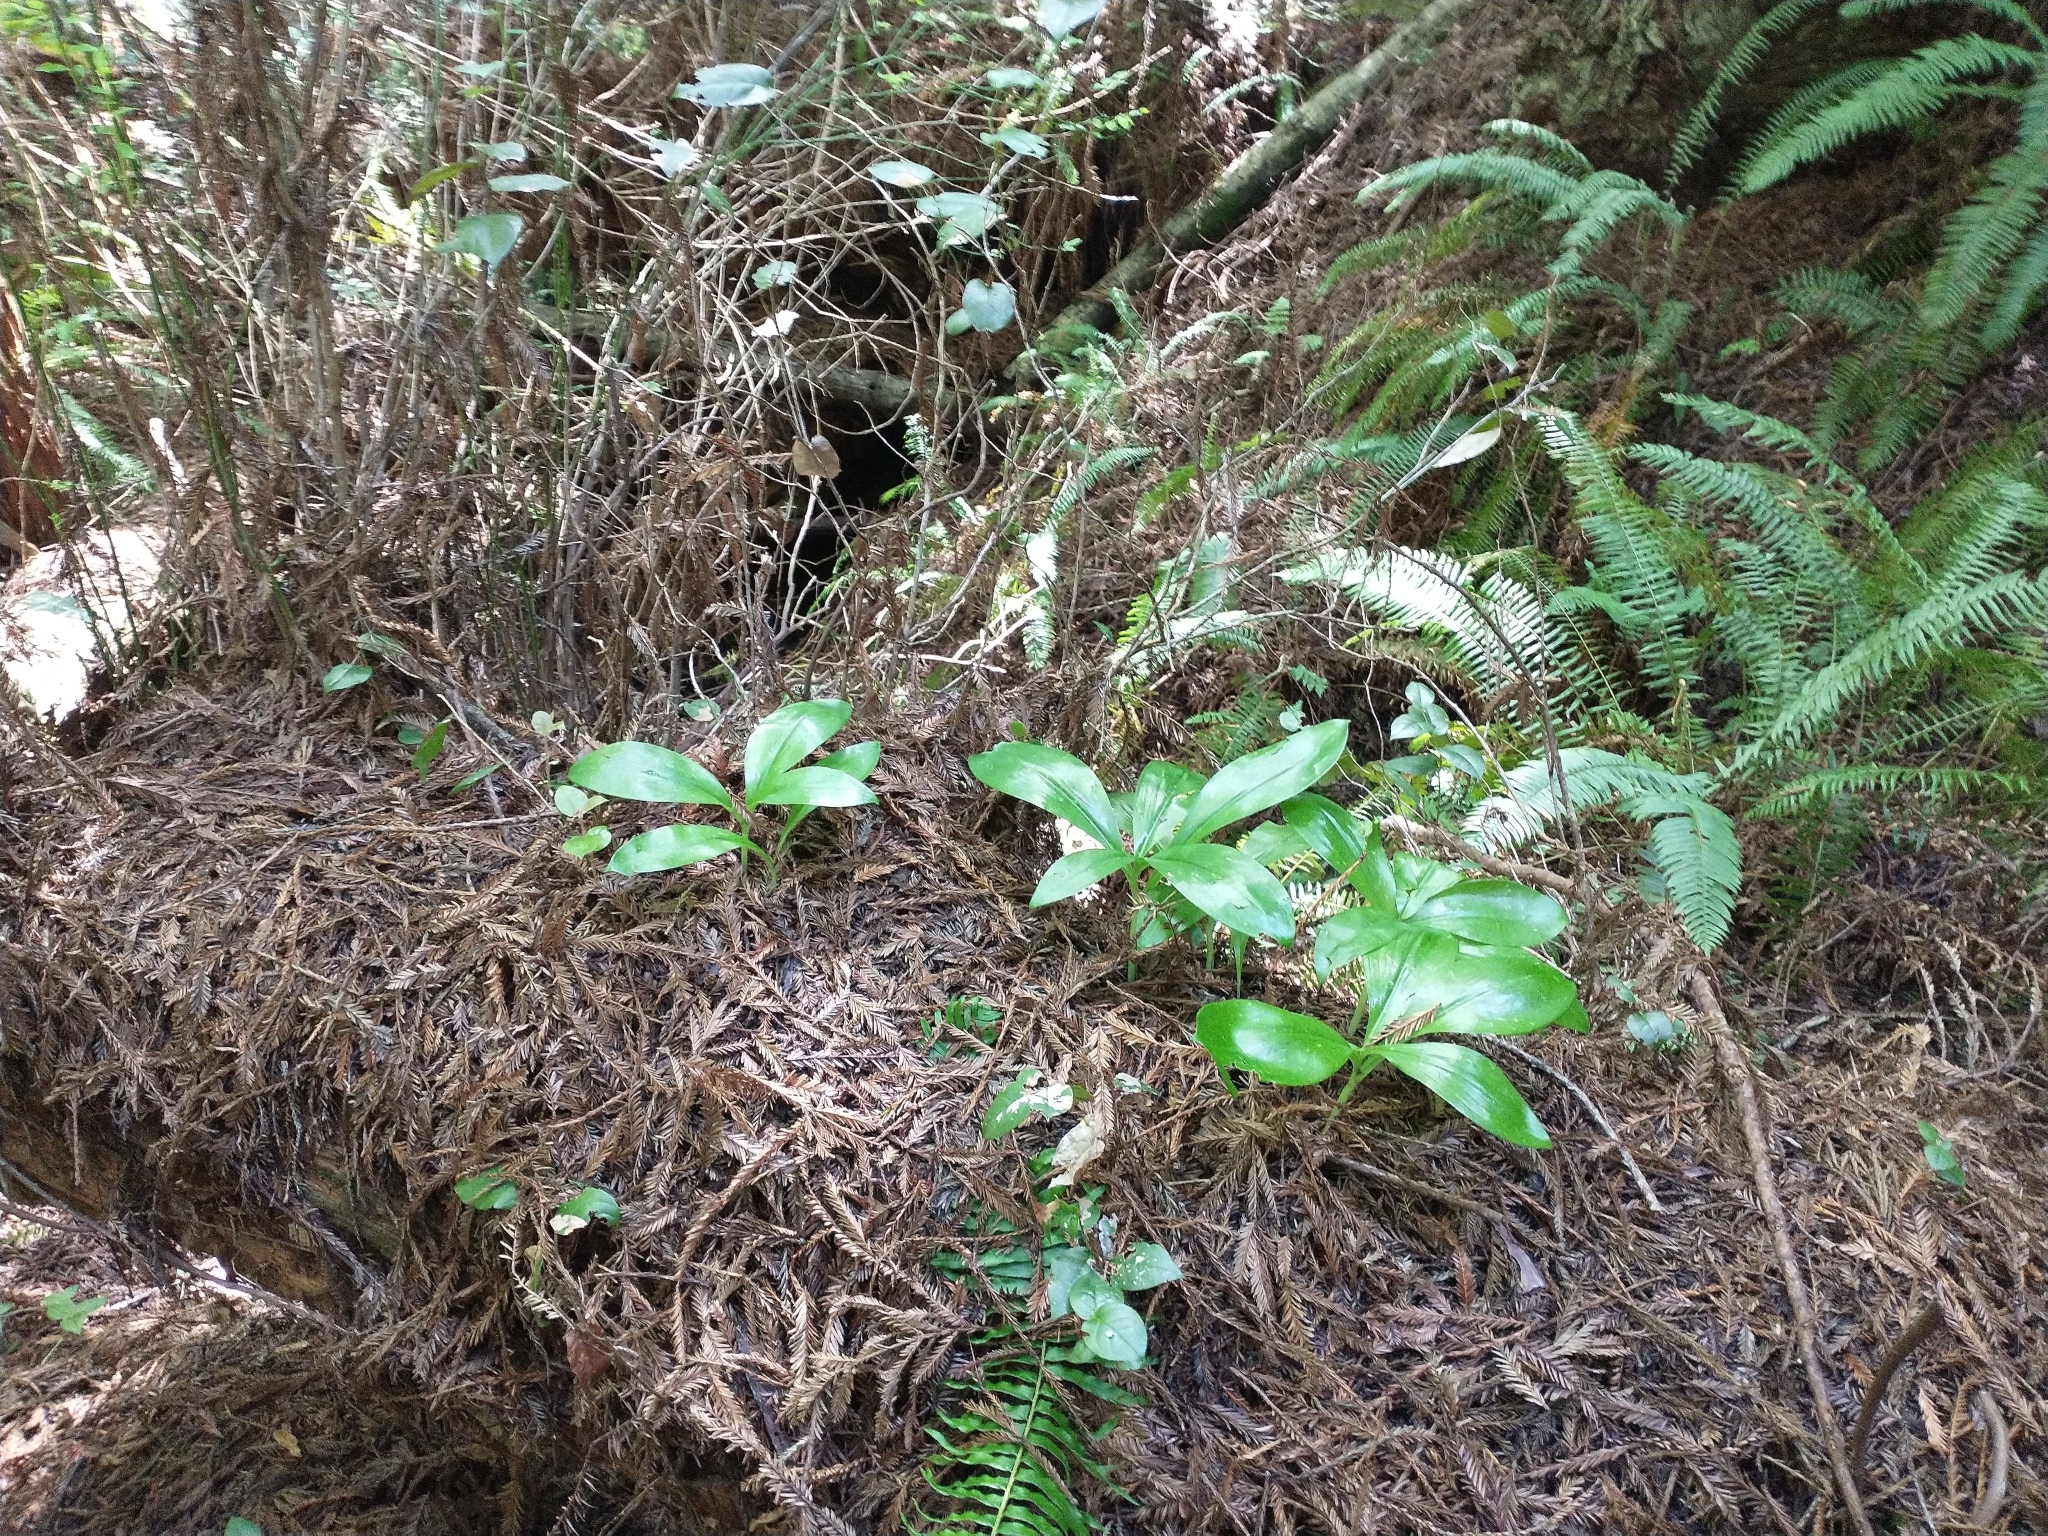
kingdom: Plantae
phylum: Tracheophyta
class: Liliopsida
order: Liliales
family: Liliaceae
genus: Clintonia
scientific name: Clintonia andrewsiana
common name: Red clintonia
